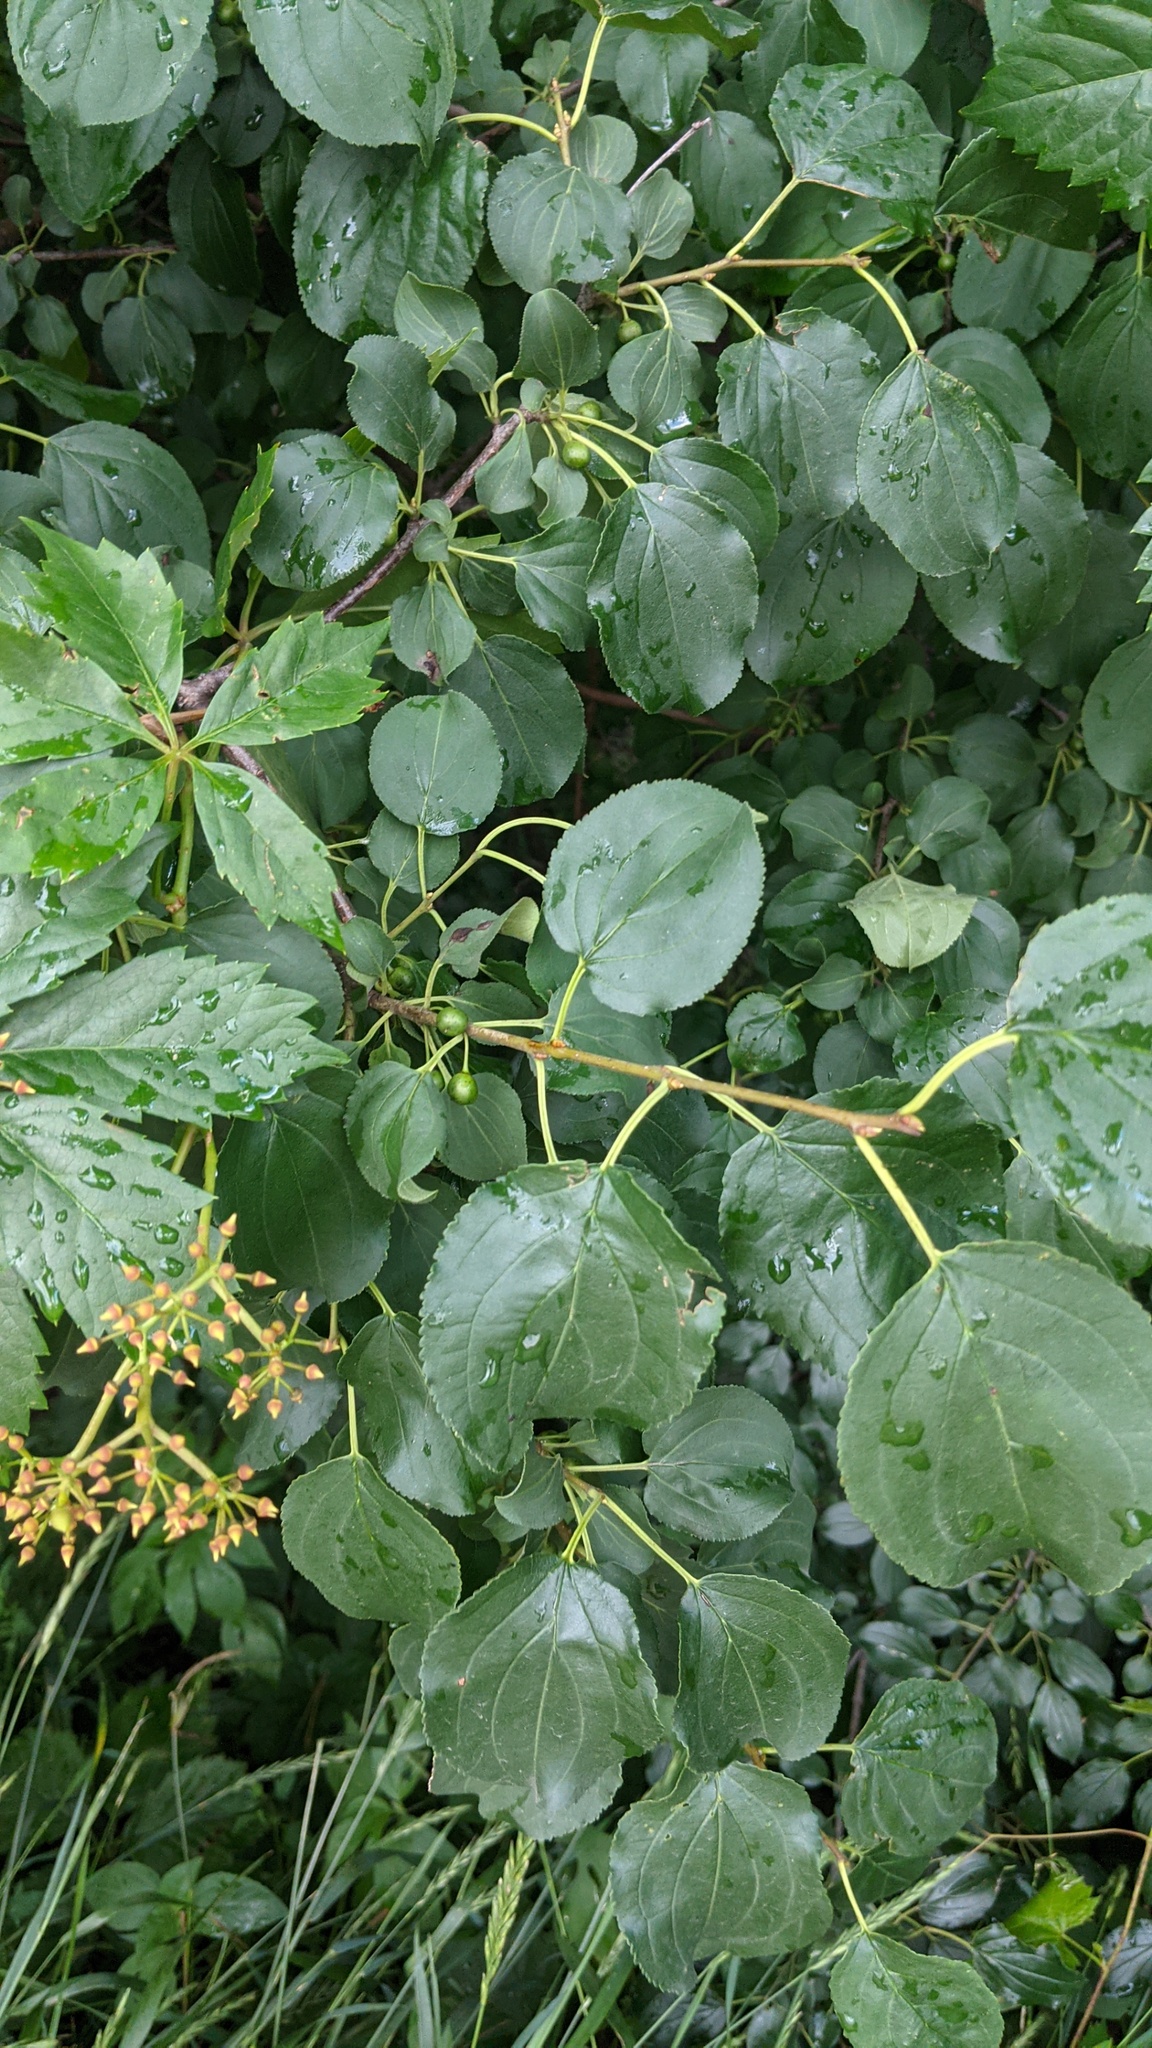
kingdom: Plantae
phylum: Tracheophyta
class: Magnoliopsida
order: Rosales
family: Rhamnaceae
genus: Rhamnus
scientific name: Rhamnus cathartica
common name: Common buckthorn
